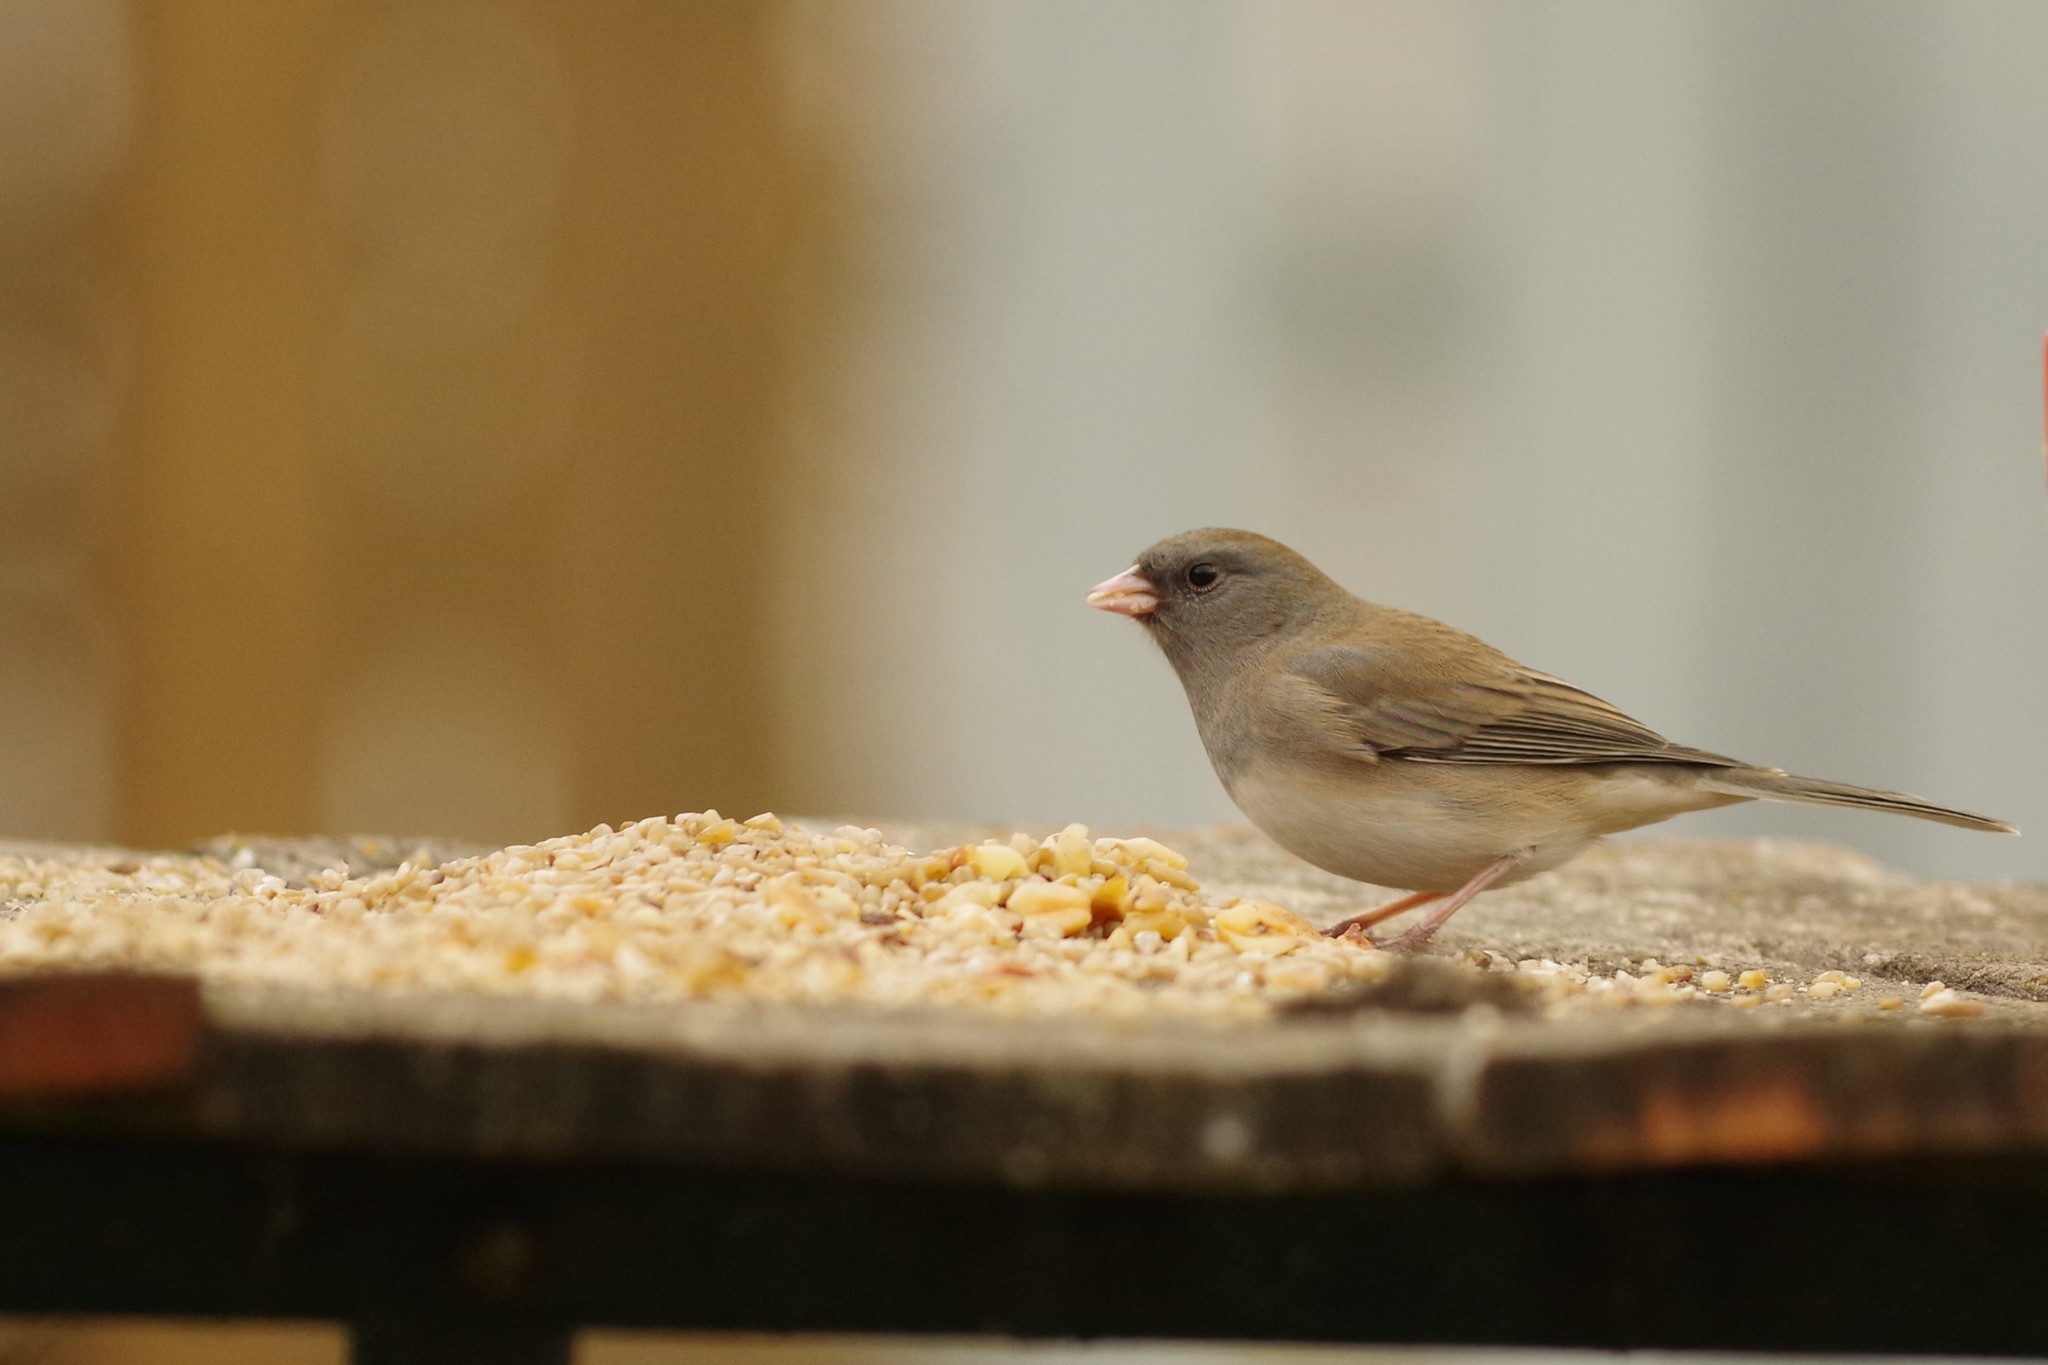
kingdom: Animalia
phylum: Chordata
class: Aves
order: Passeriformes
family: Passerellidae
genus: Junco
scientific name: Junco hyemalis
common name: Dark-eyed junco
